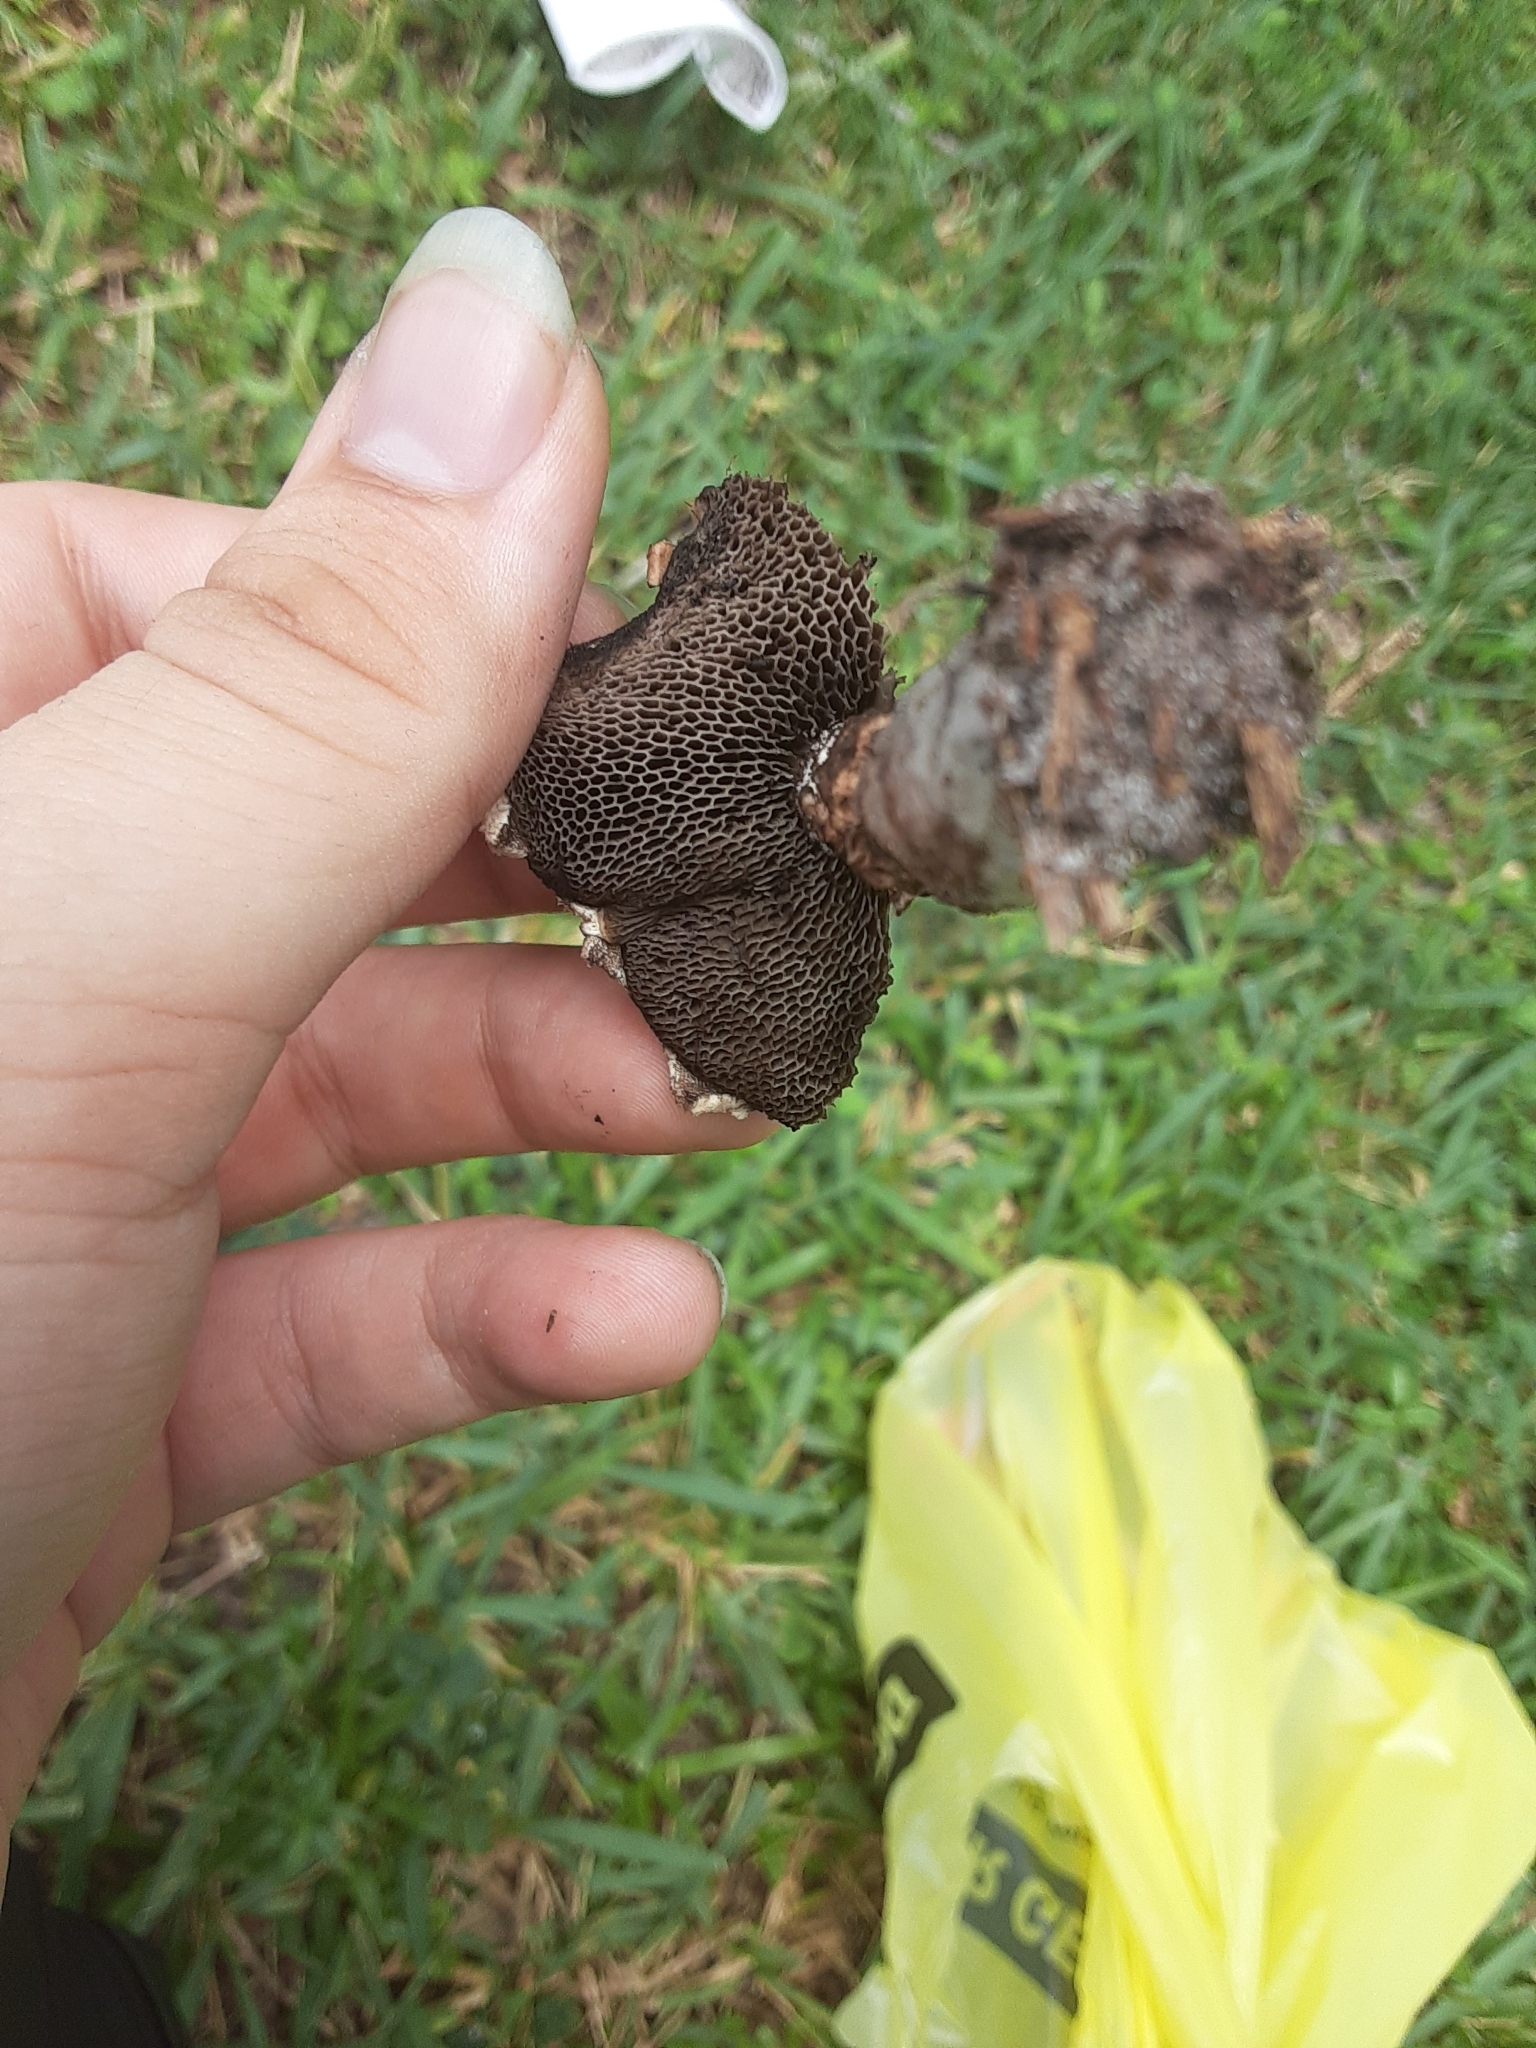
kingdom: Fungi
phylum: Basidiomycota
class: Agaricomycetes
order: Boletales
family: Boletaceae
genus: Strobilomyces
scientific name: Strobilomyces strobilaceus
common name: Old man of the woods
